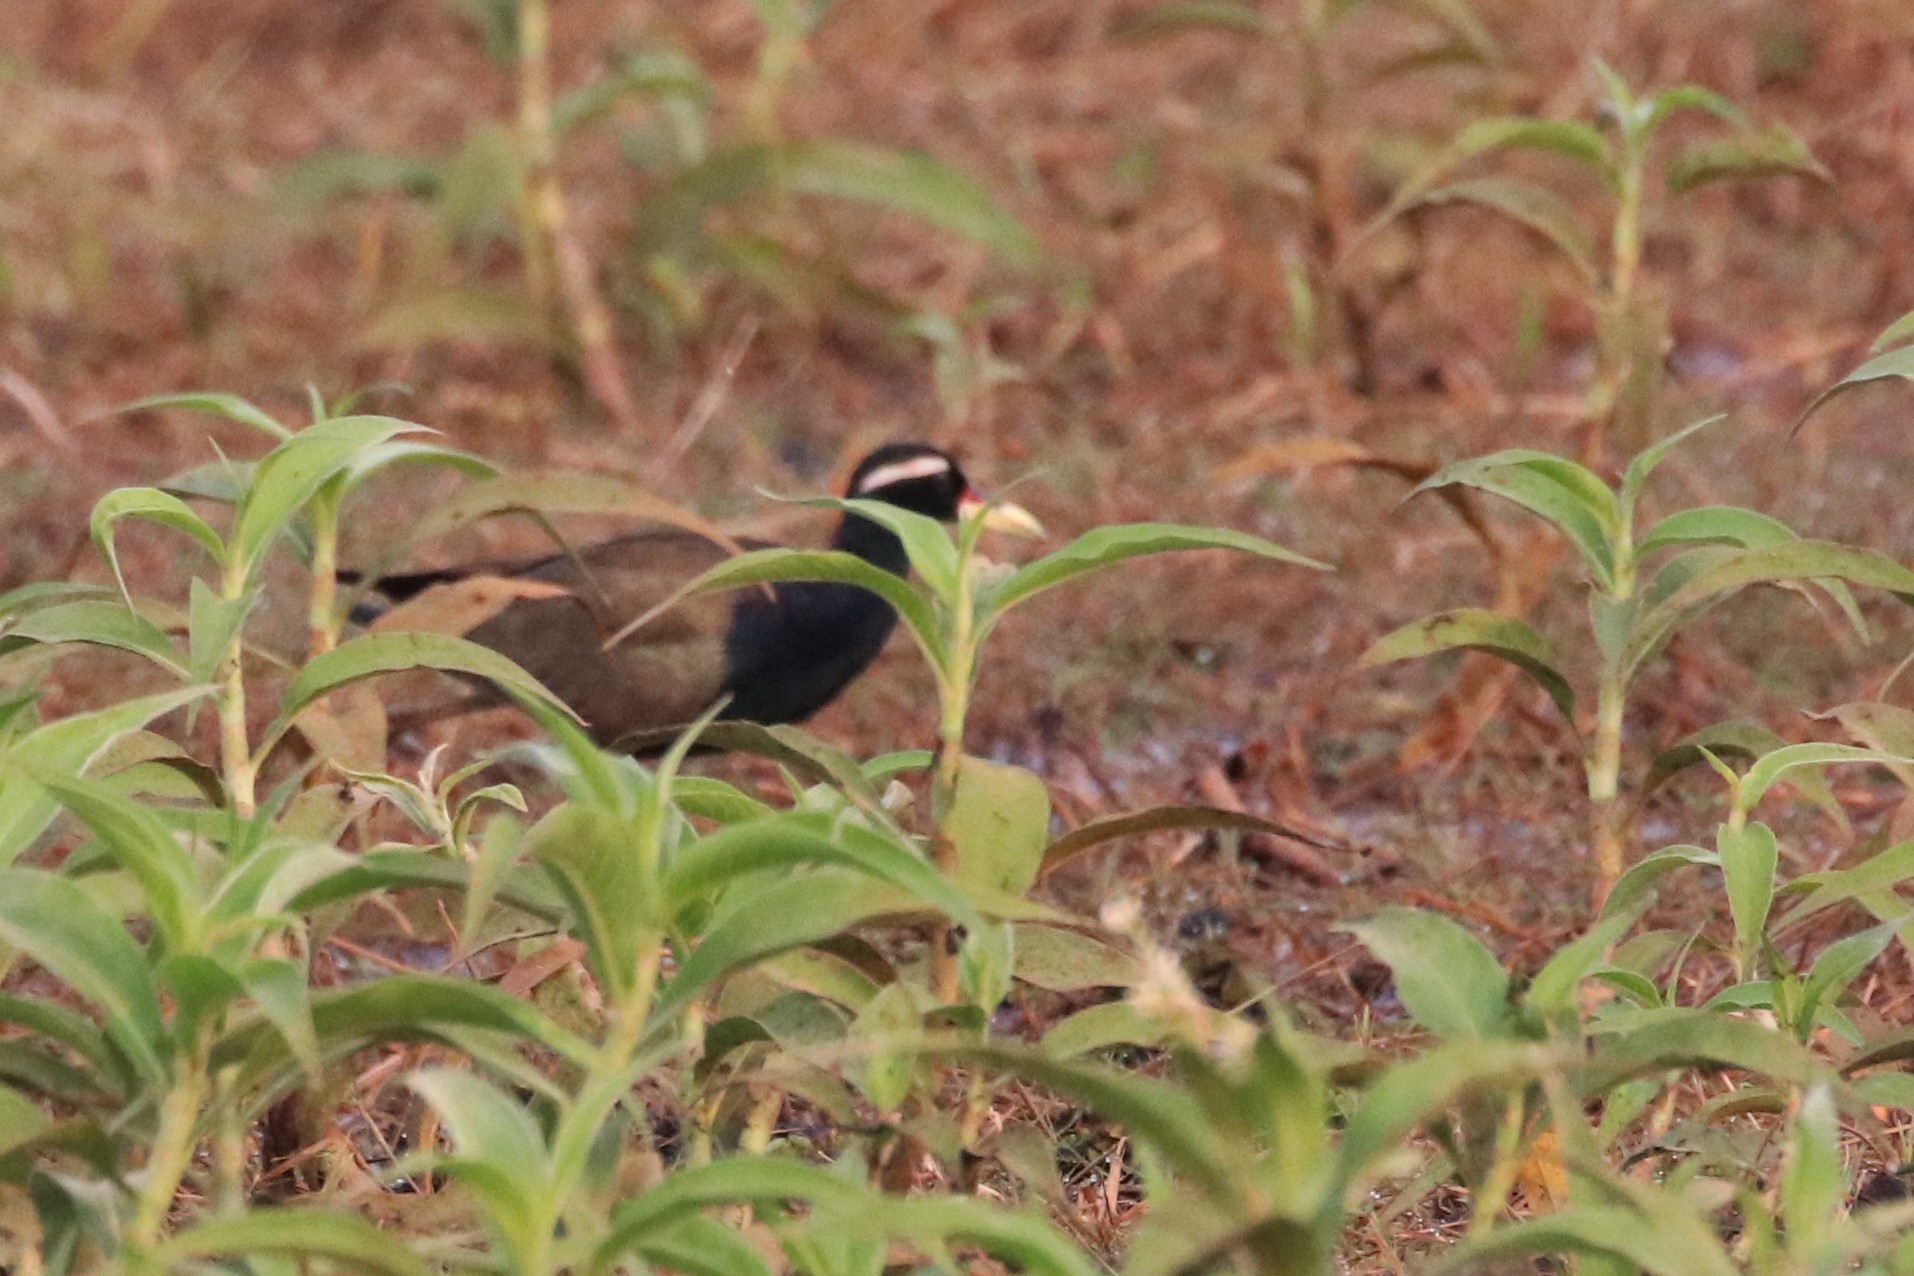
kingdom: Animalia
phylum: Chordata
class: Aves
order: Charadriiformes
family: Jacanidae
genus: Metopidius
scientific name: Metopidius indicus
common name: Bronze-winged jacana
